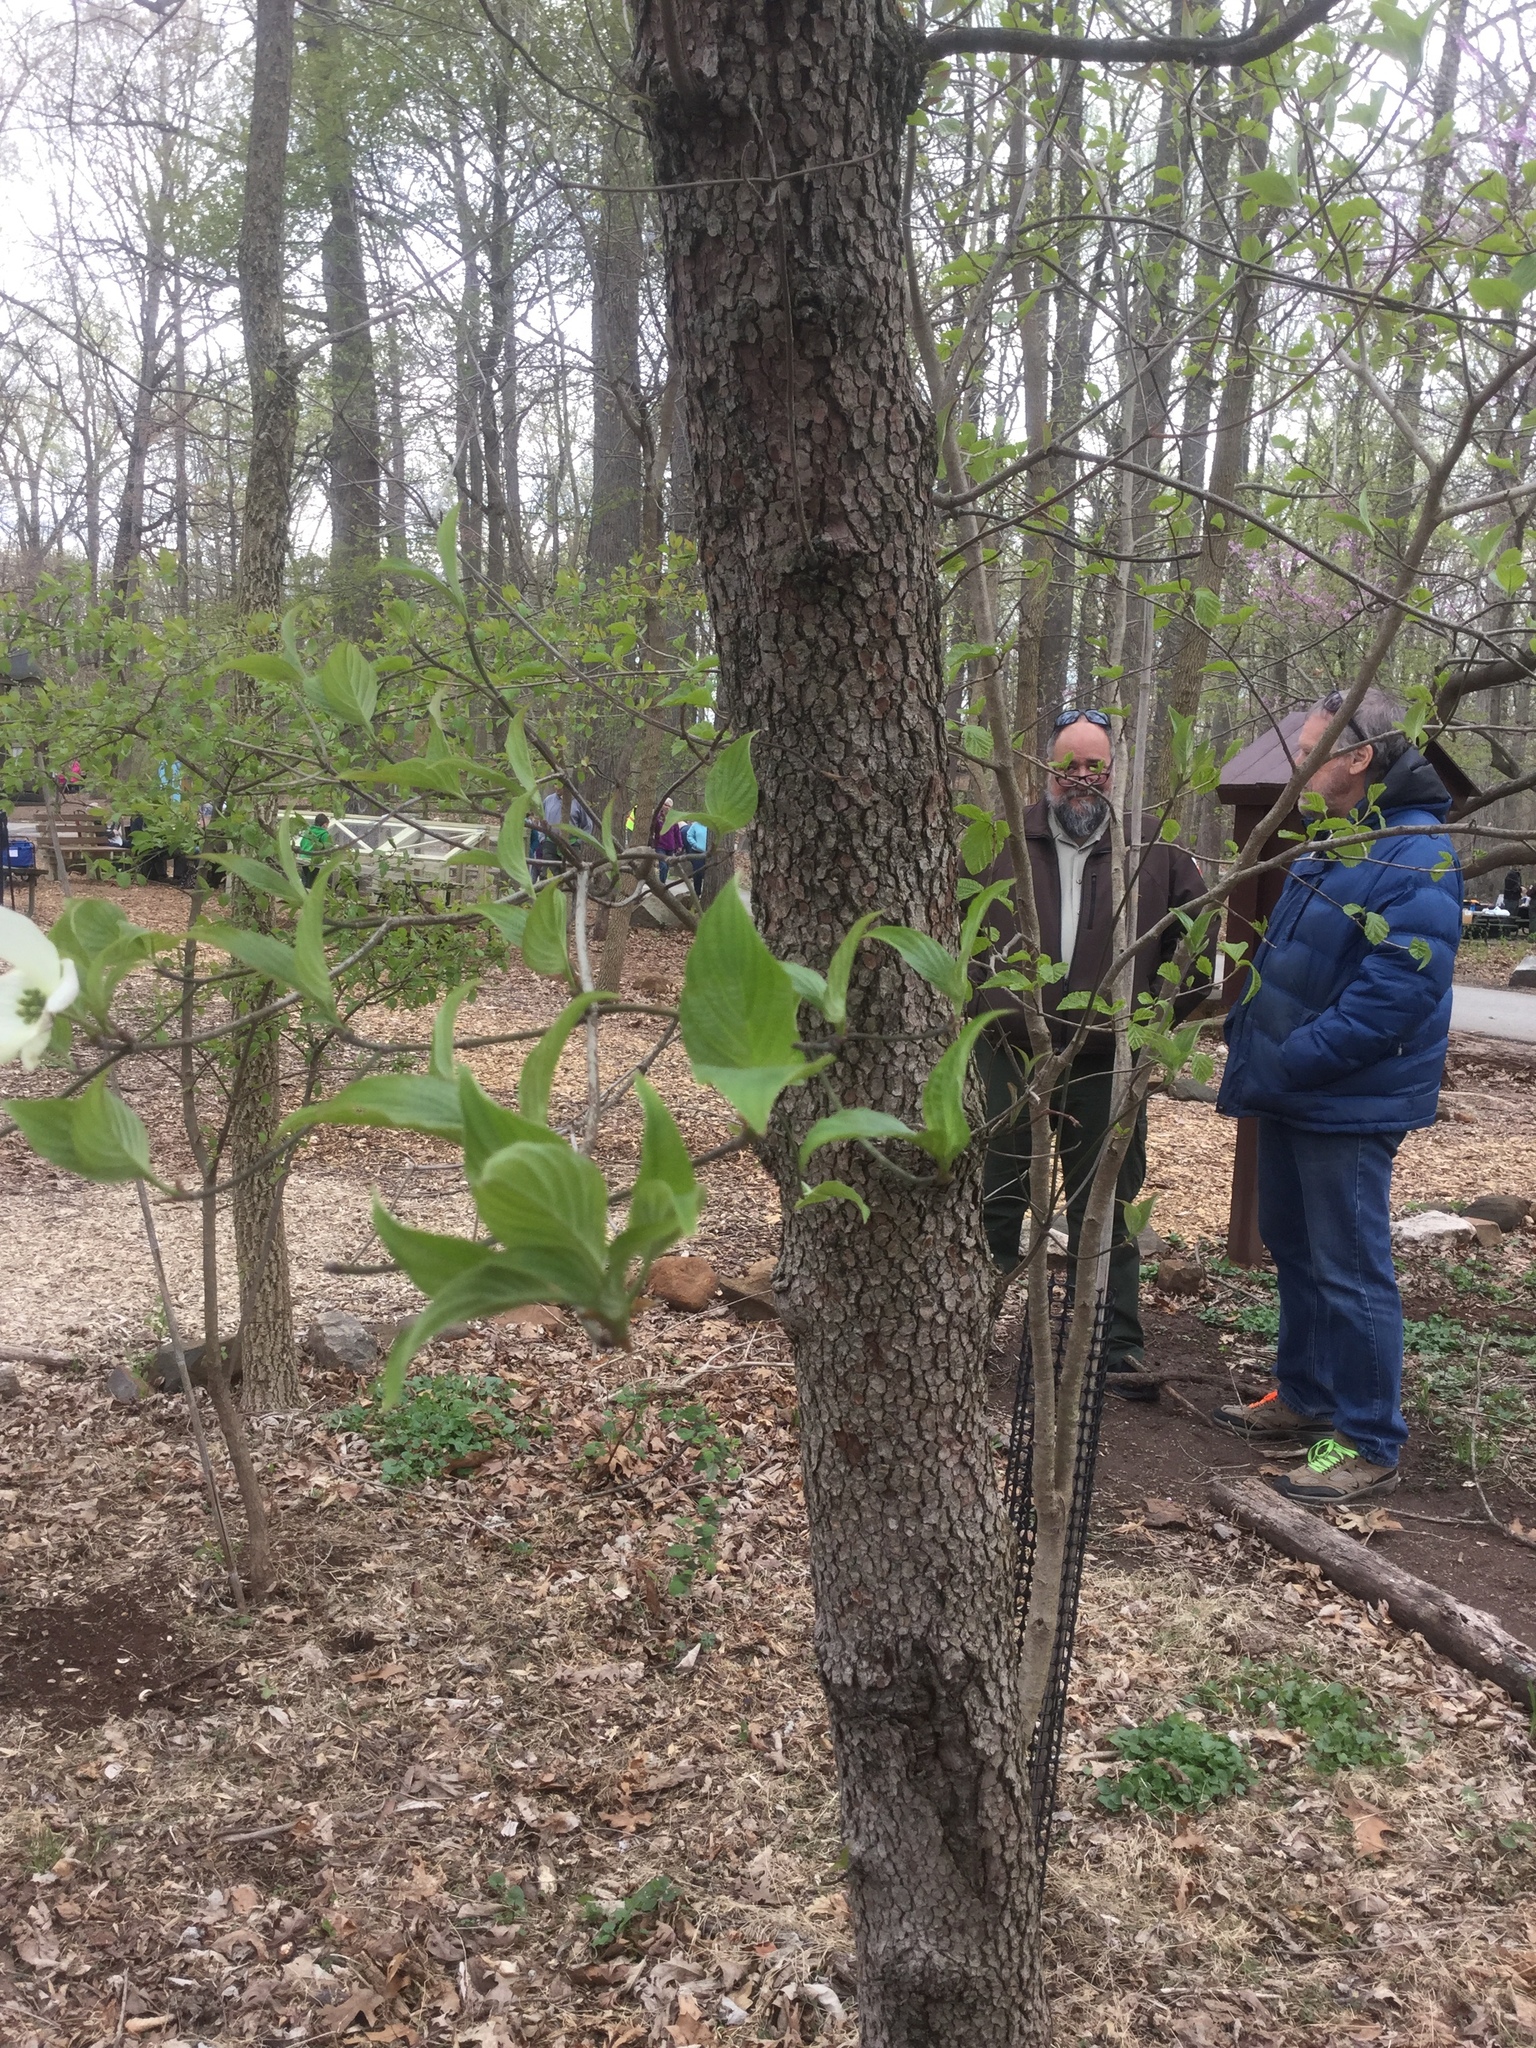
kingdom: Plantae
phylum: Tracheophyta
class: Magnoliopsida
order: Cornales
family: Cornaceae
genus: Cornus
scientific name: Cornus florida
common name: Flowering dogwood
